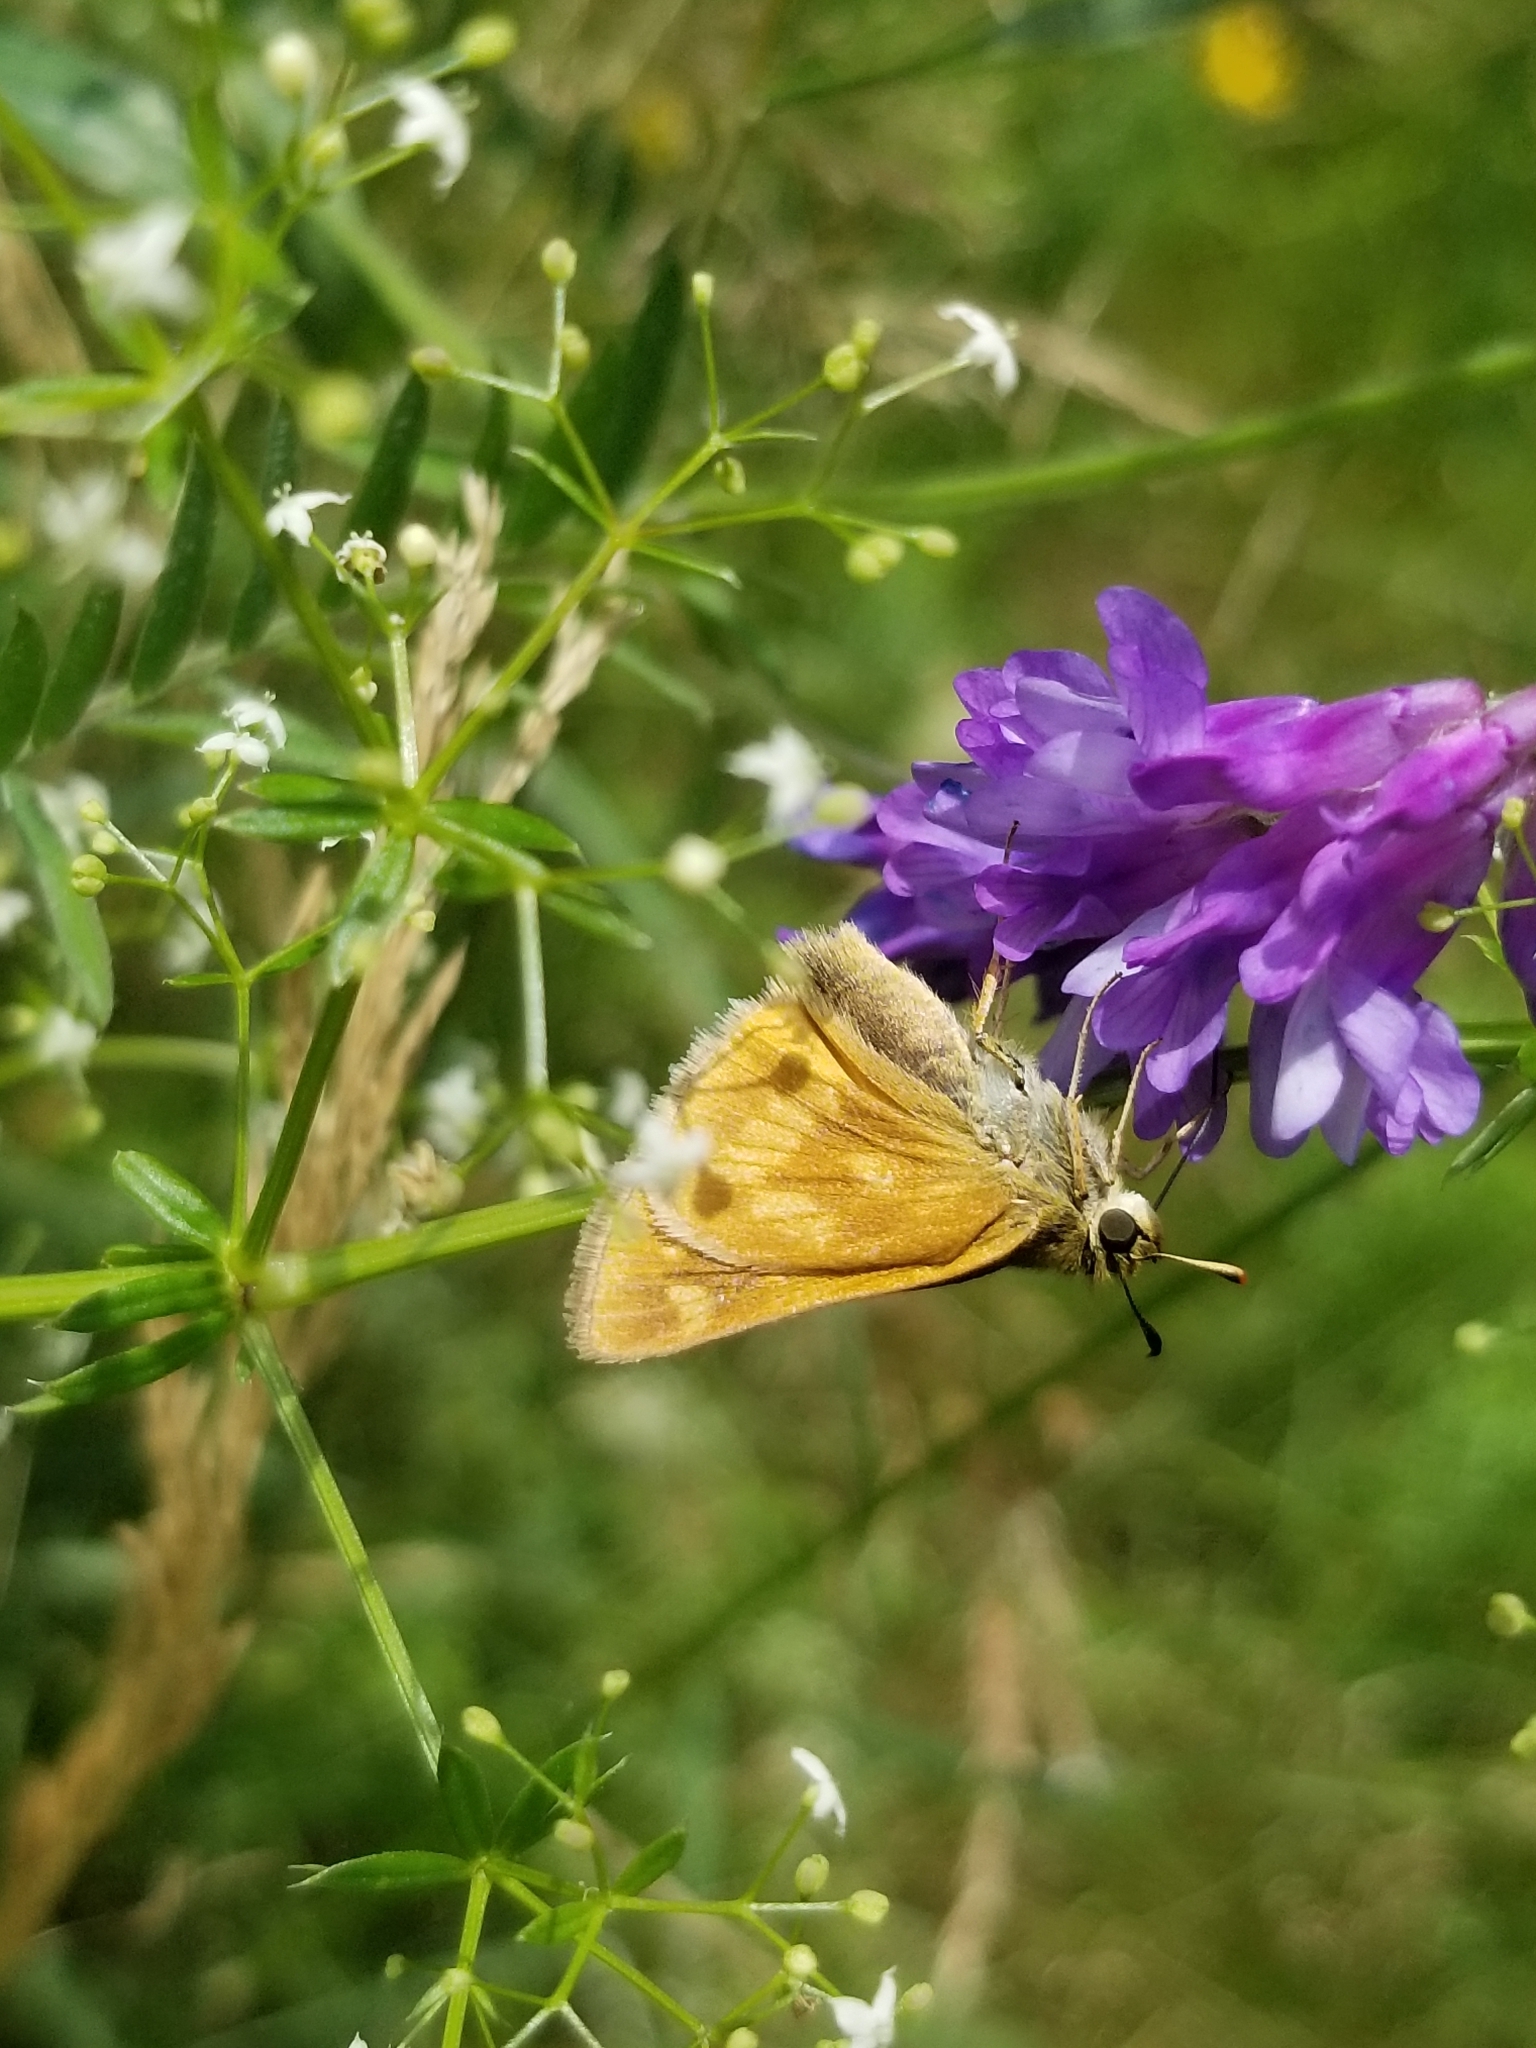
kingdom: Animalia
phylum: Arthropoda
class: Insecta
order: Lepidoptera
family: Hesperiidae
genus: Polites
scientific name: Polites mystic
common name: Long dash
